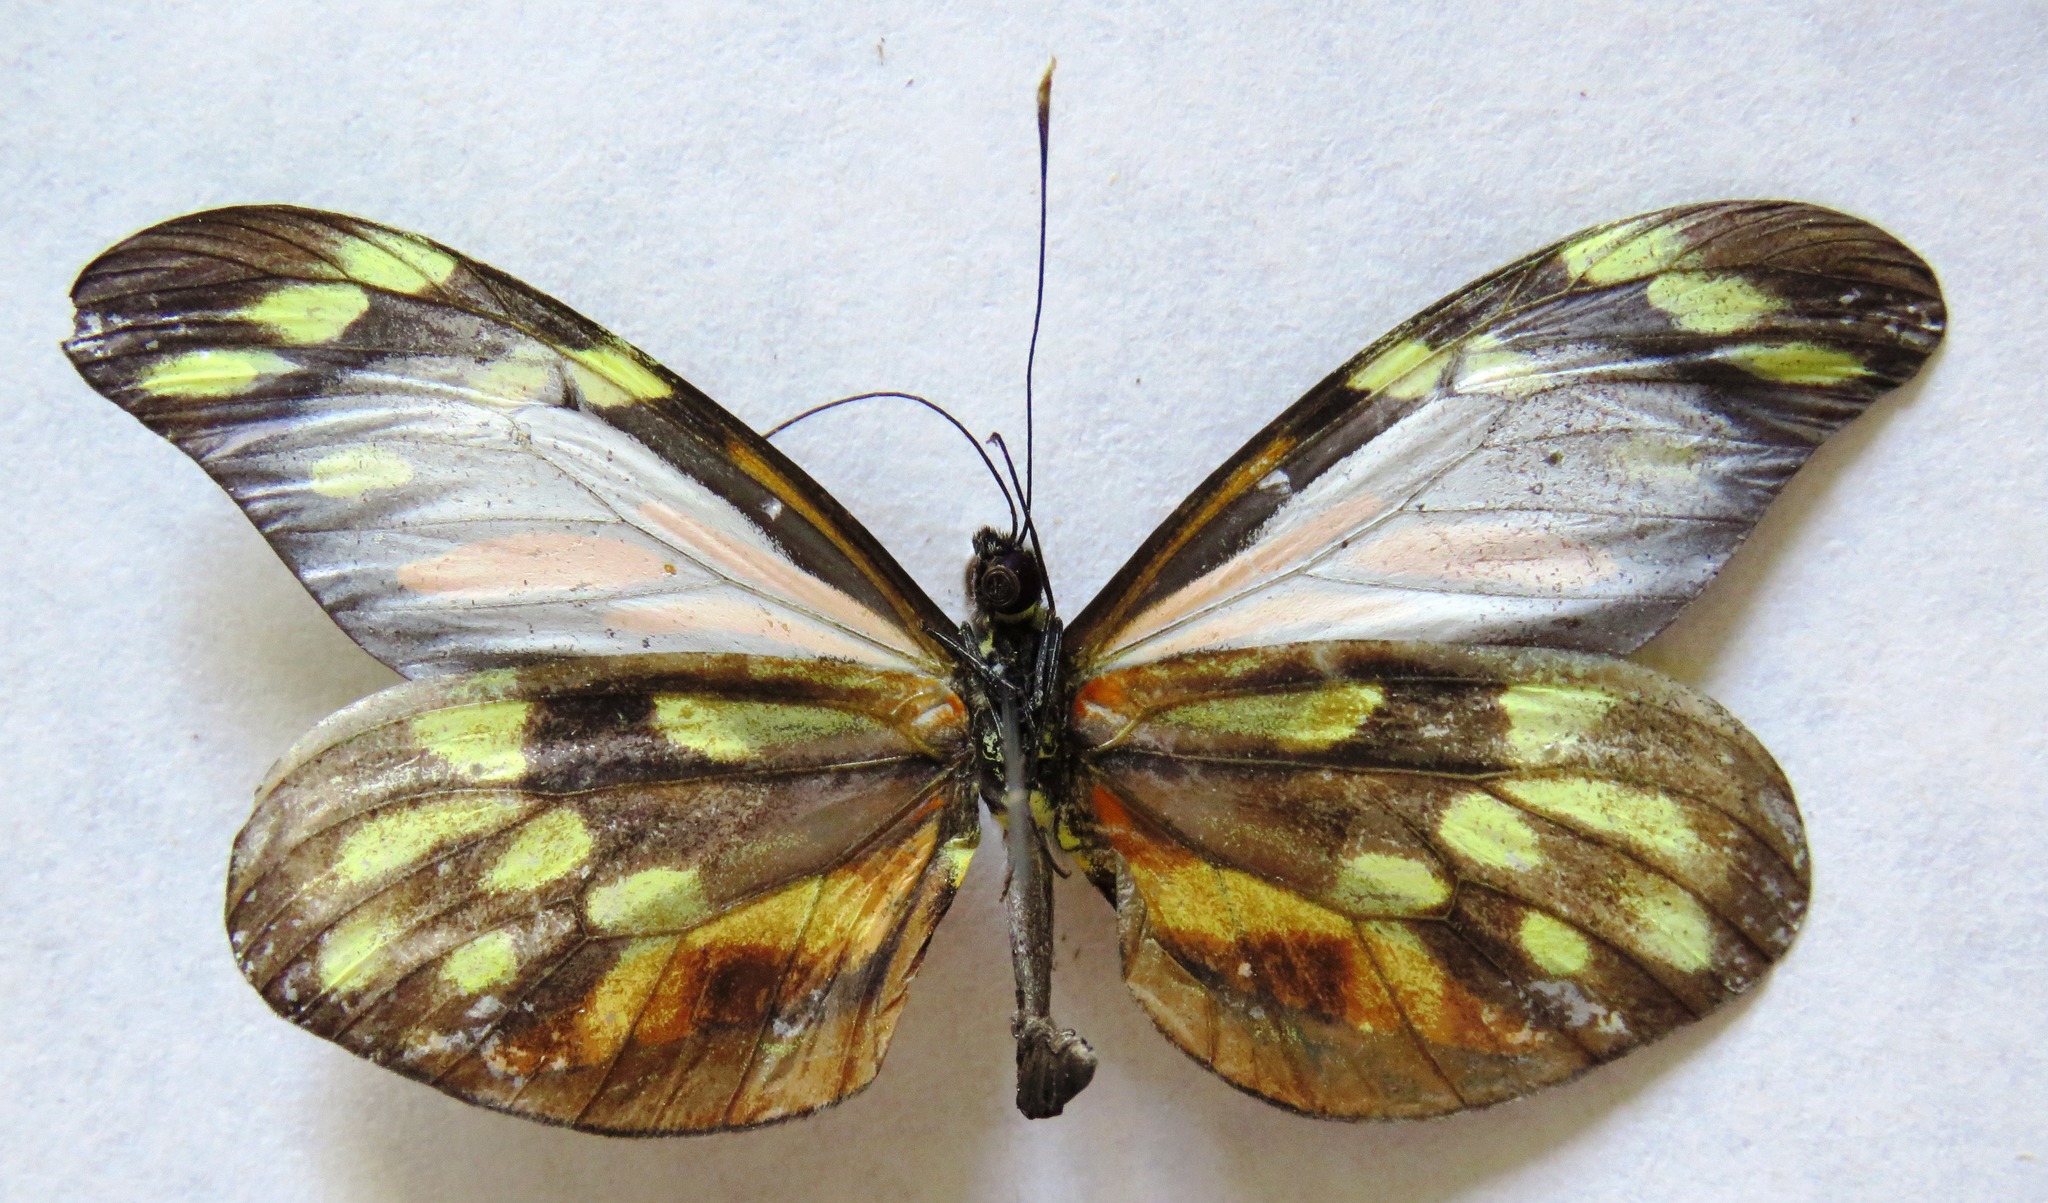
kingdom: Animalia
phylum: Arthropoda
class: Insecta
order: Lepidoptera
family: Pieridae
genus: Dismorphia
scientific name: Dismorphia amphione
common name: Tiger mimic-white
